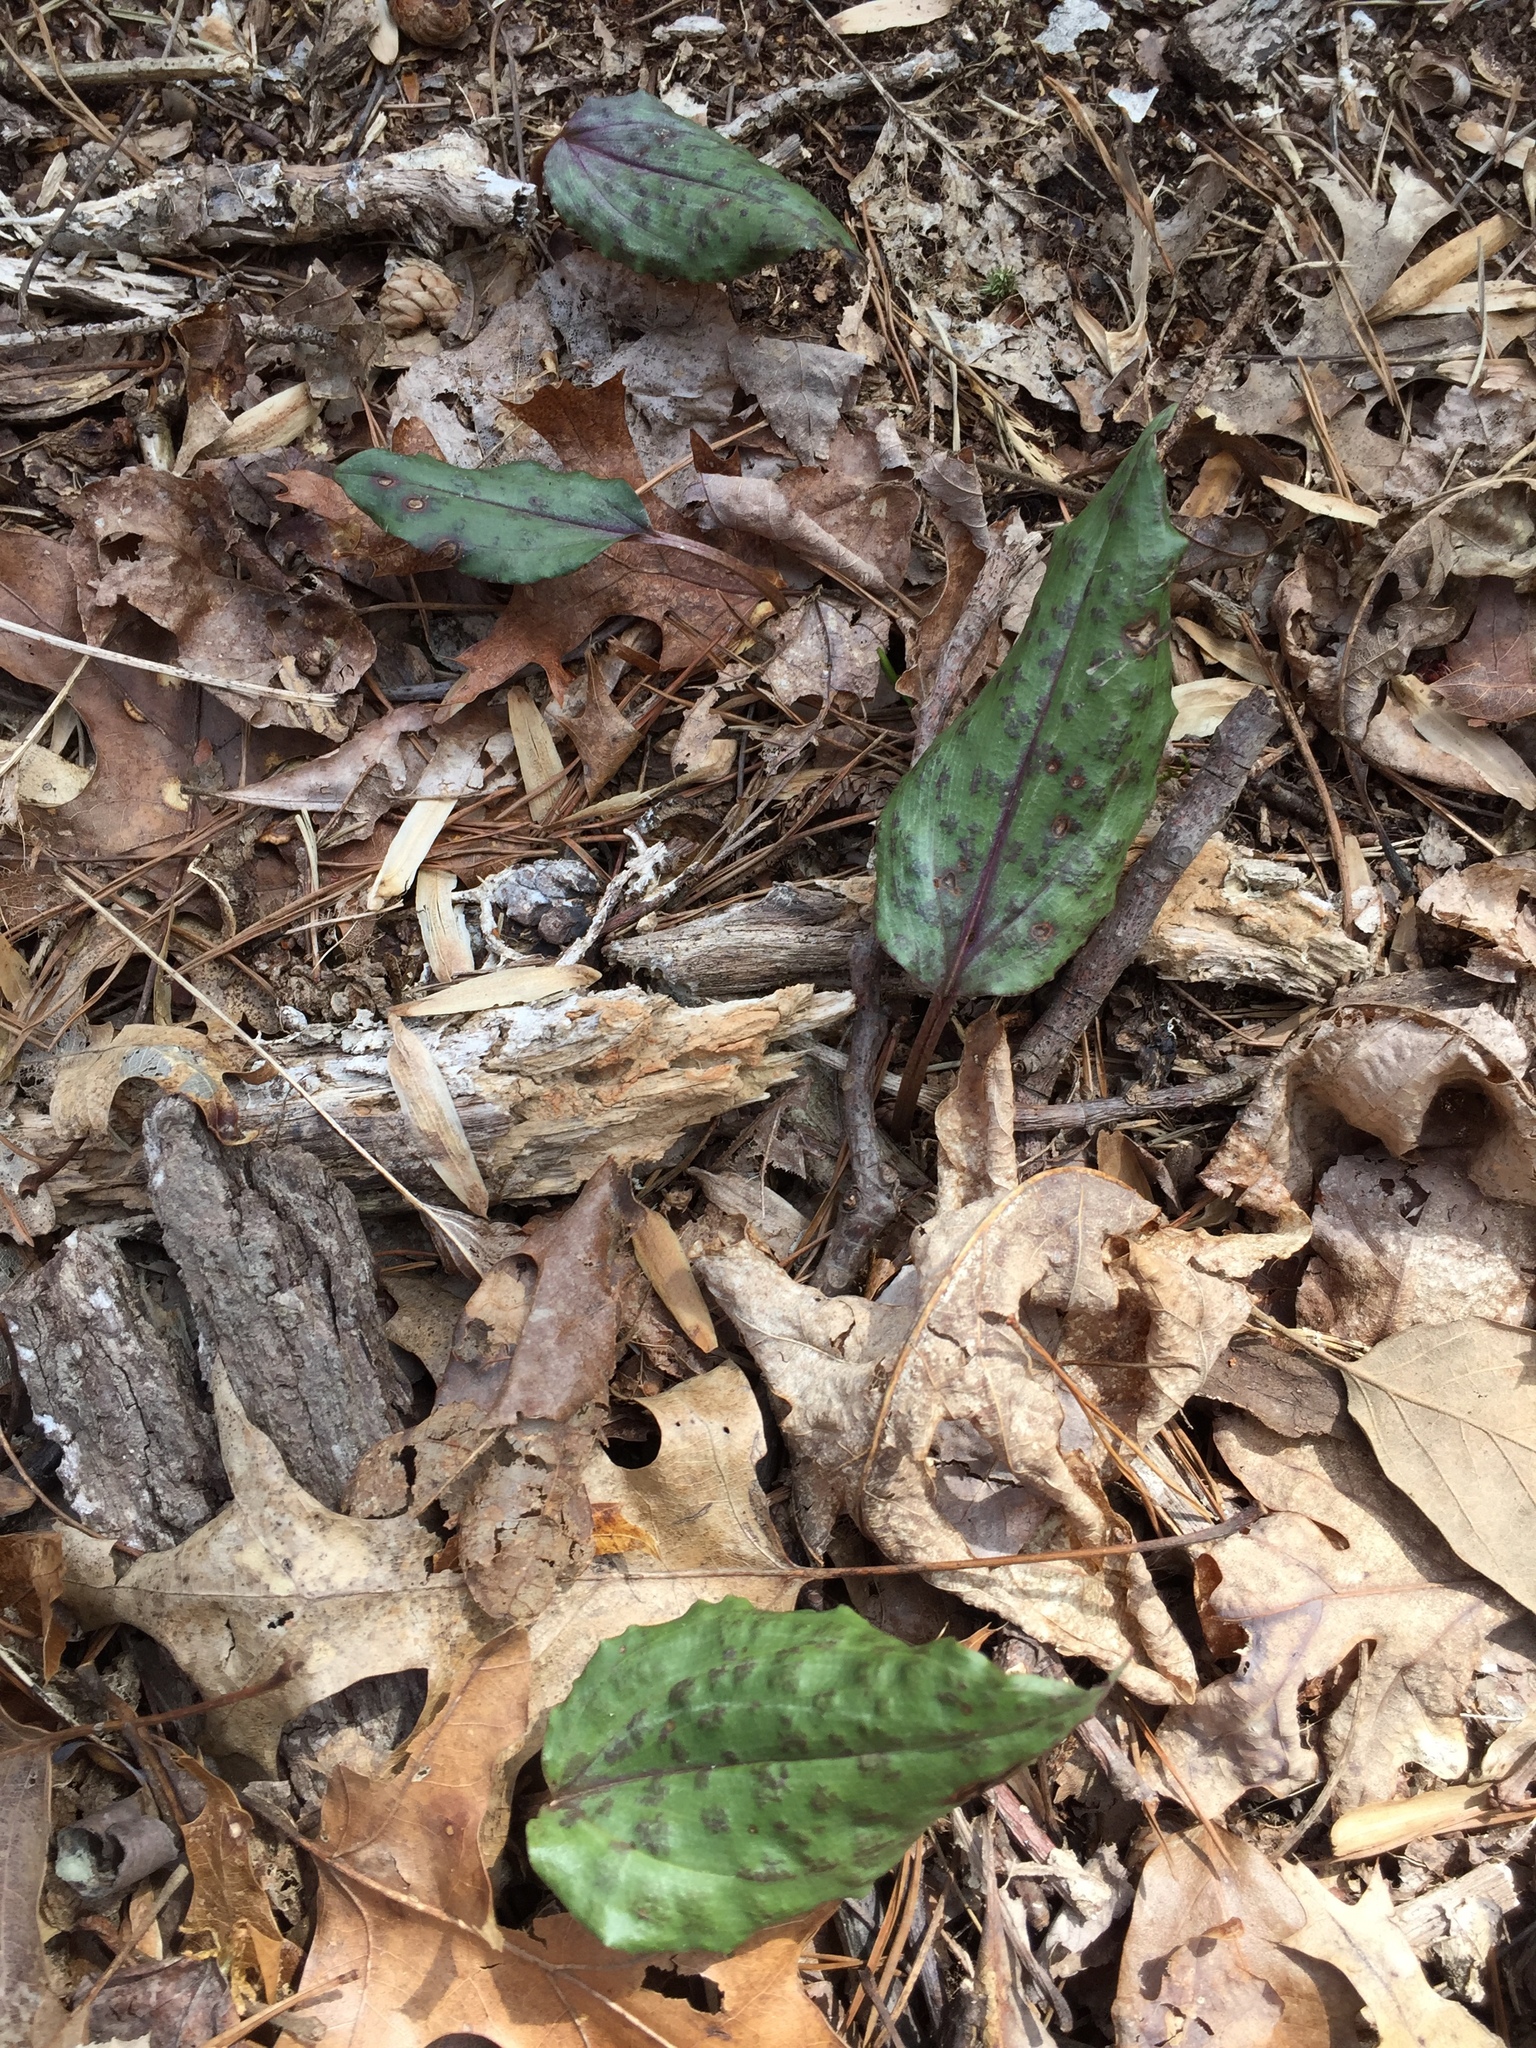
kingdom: Plantae
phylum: Tracheophyta
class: Liliopsida
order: Asparagales
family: Orchidaceae
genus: Tipularia
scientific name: Tipularia discolor
